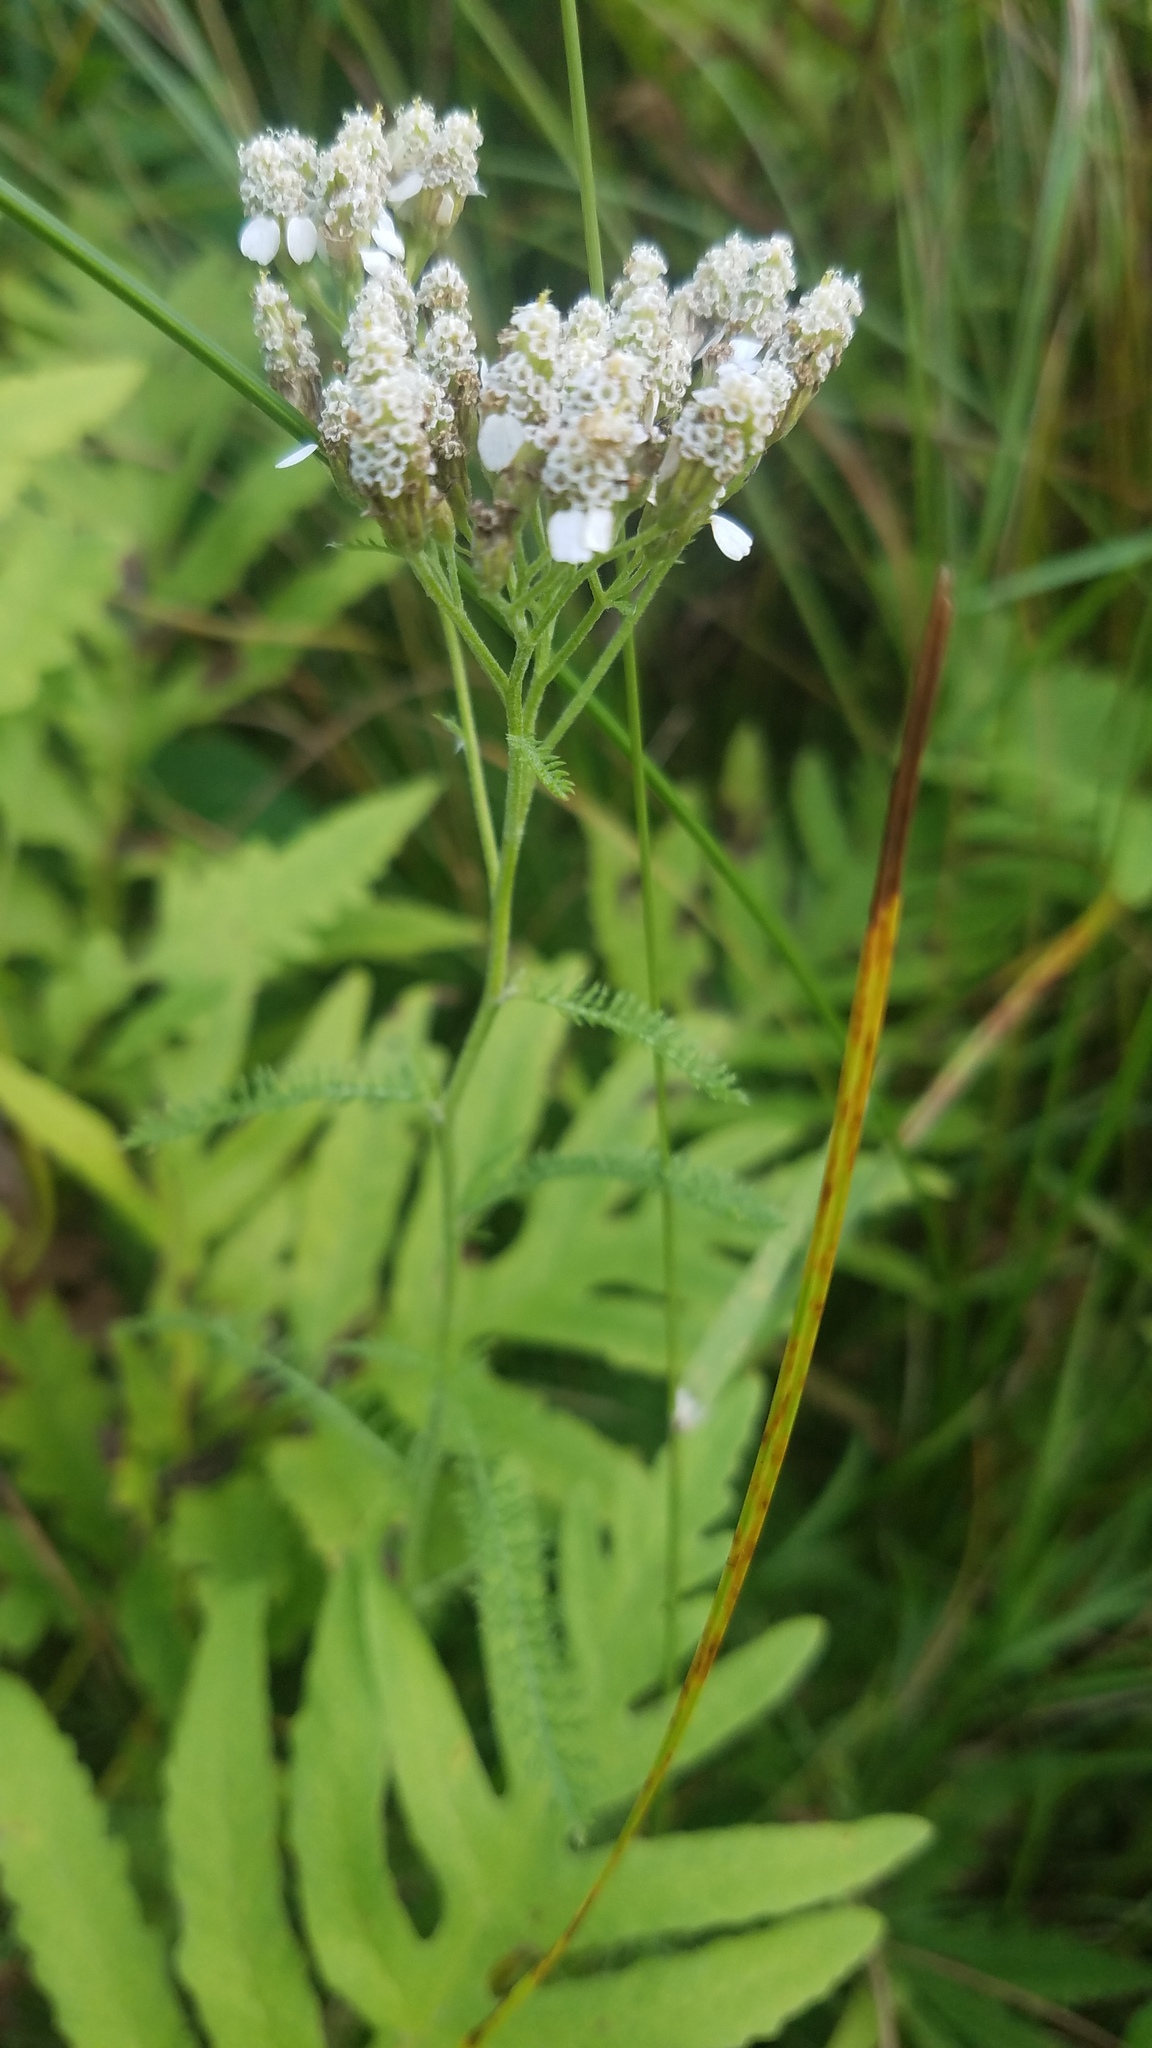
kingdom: Plantae
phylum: Tracheophyta
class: Magnoliopsida
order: Asterales
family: Asteraceae
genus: Achillea
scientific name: Achillea millefolium
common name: Yarrow
